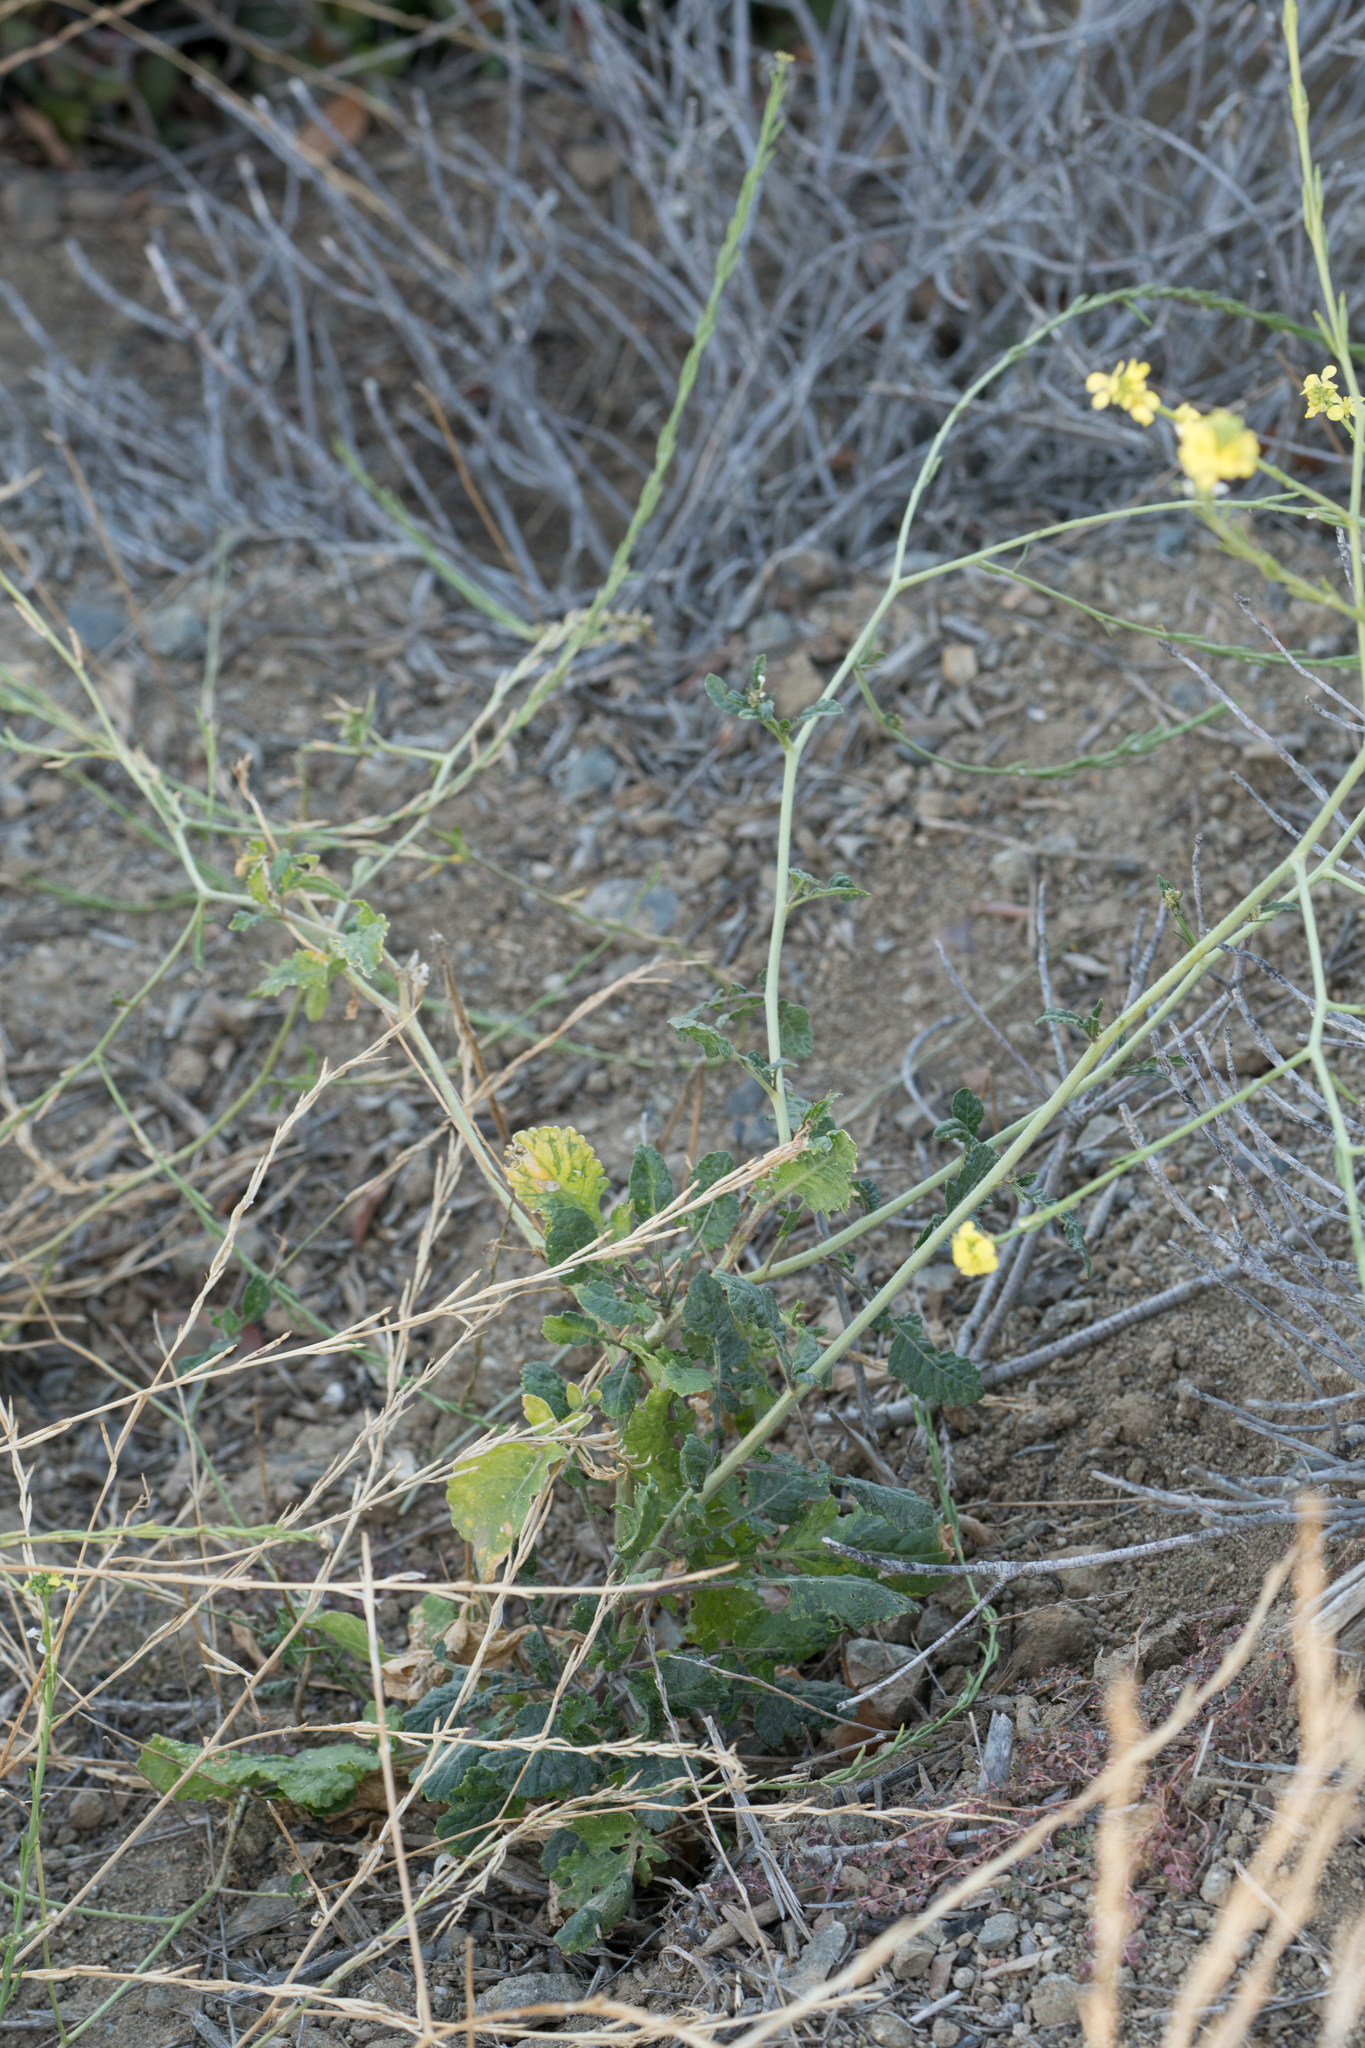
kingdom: Plantae
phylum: Tracheophyta
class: Magnoliopsida
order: Brassicales
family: Brassicaceae
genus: Hirschfeldia
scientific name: Hirschfeldia incana
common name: Hoary mustard
